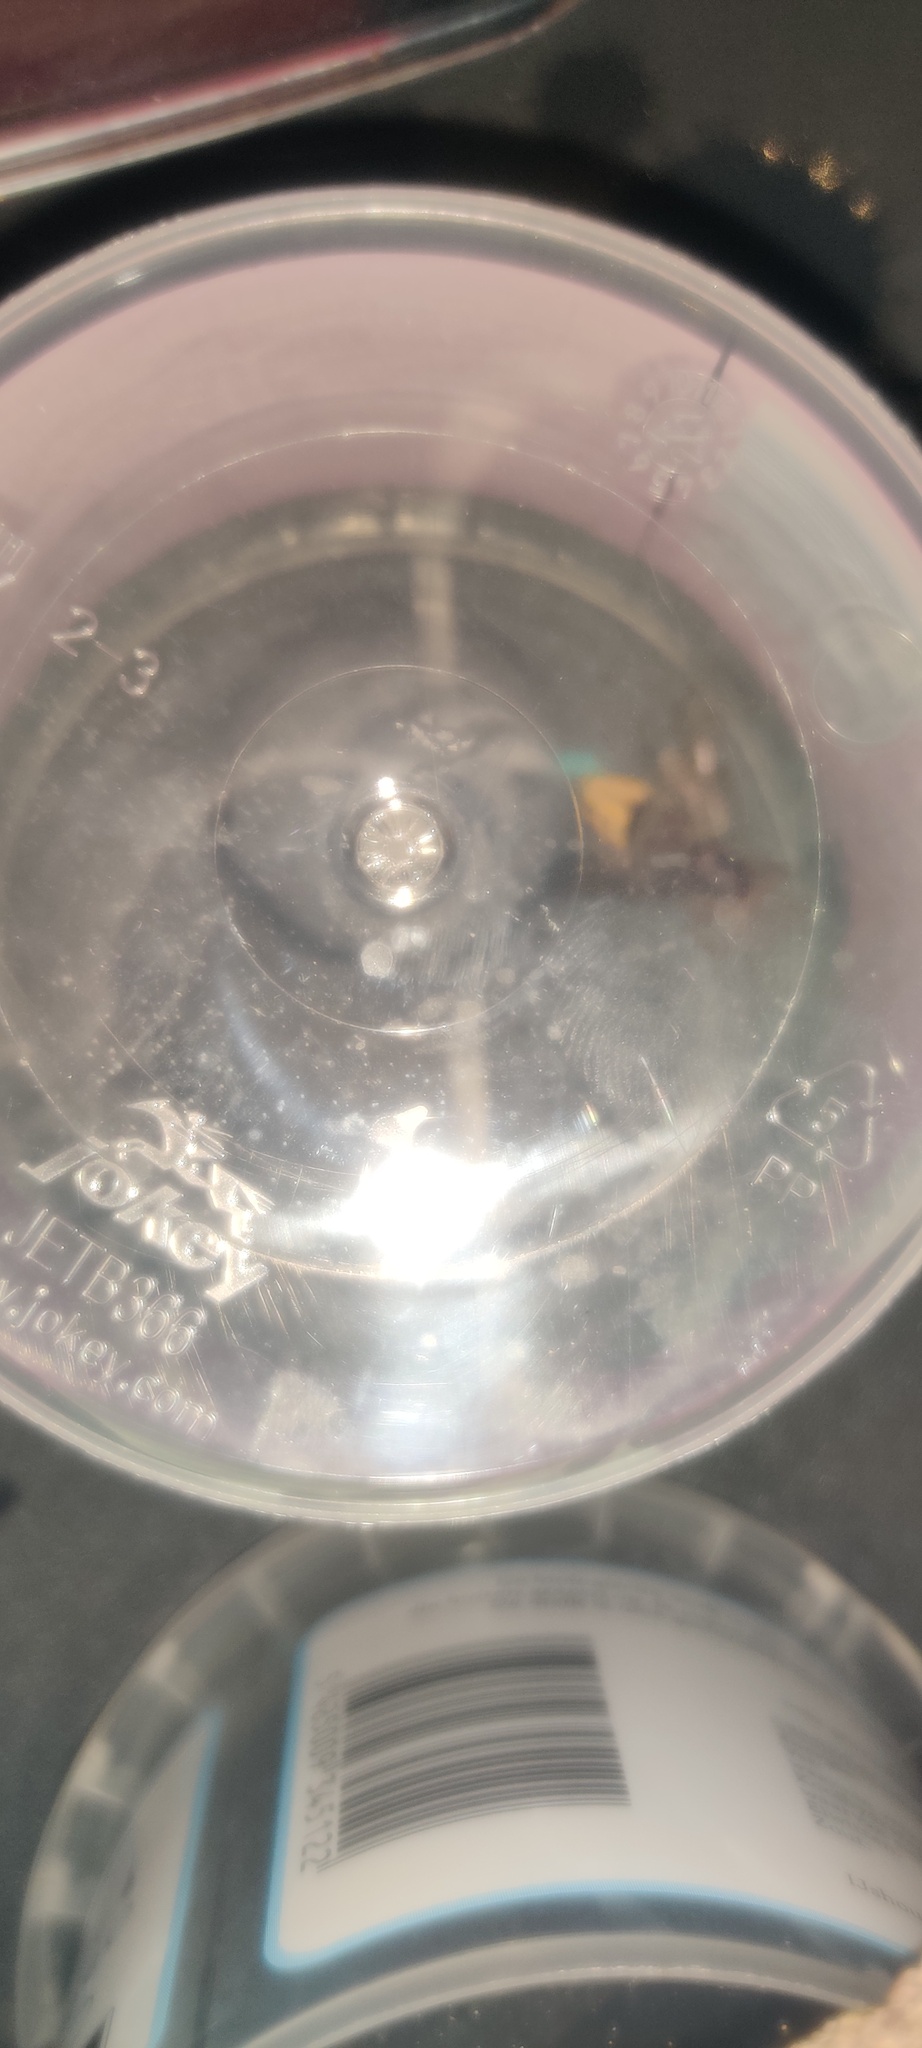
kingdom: Animalia
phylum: Arthropoda
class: Insecta
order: Hymenoptera
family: Vespidae
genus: Vespa
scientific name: Vespa crabro
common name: Hornet
